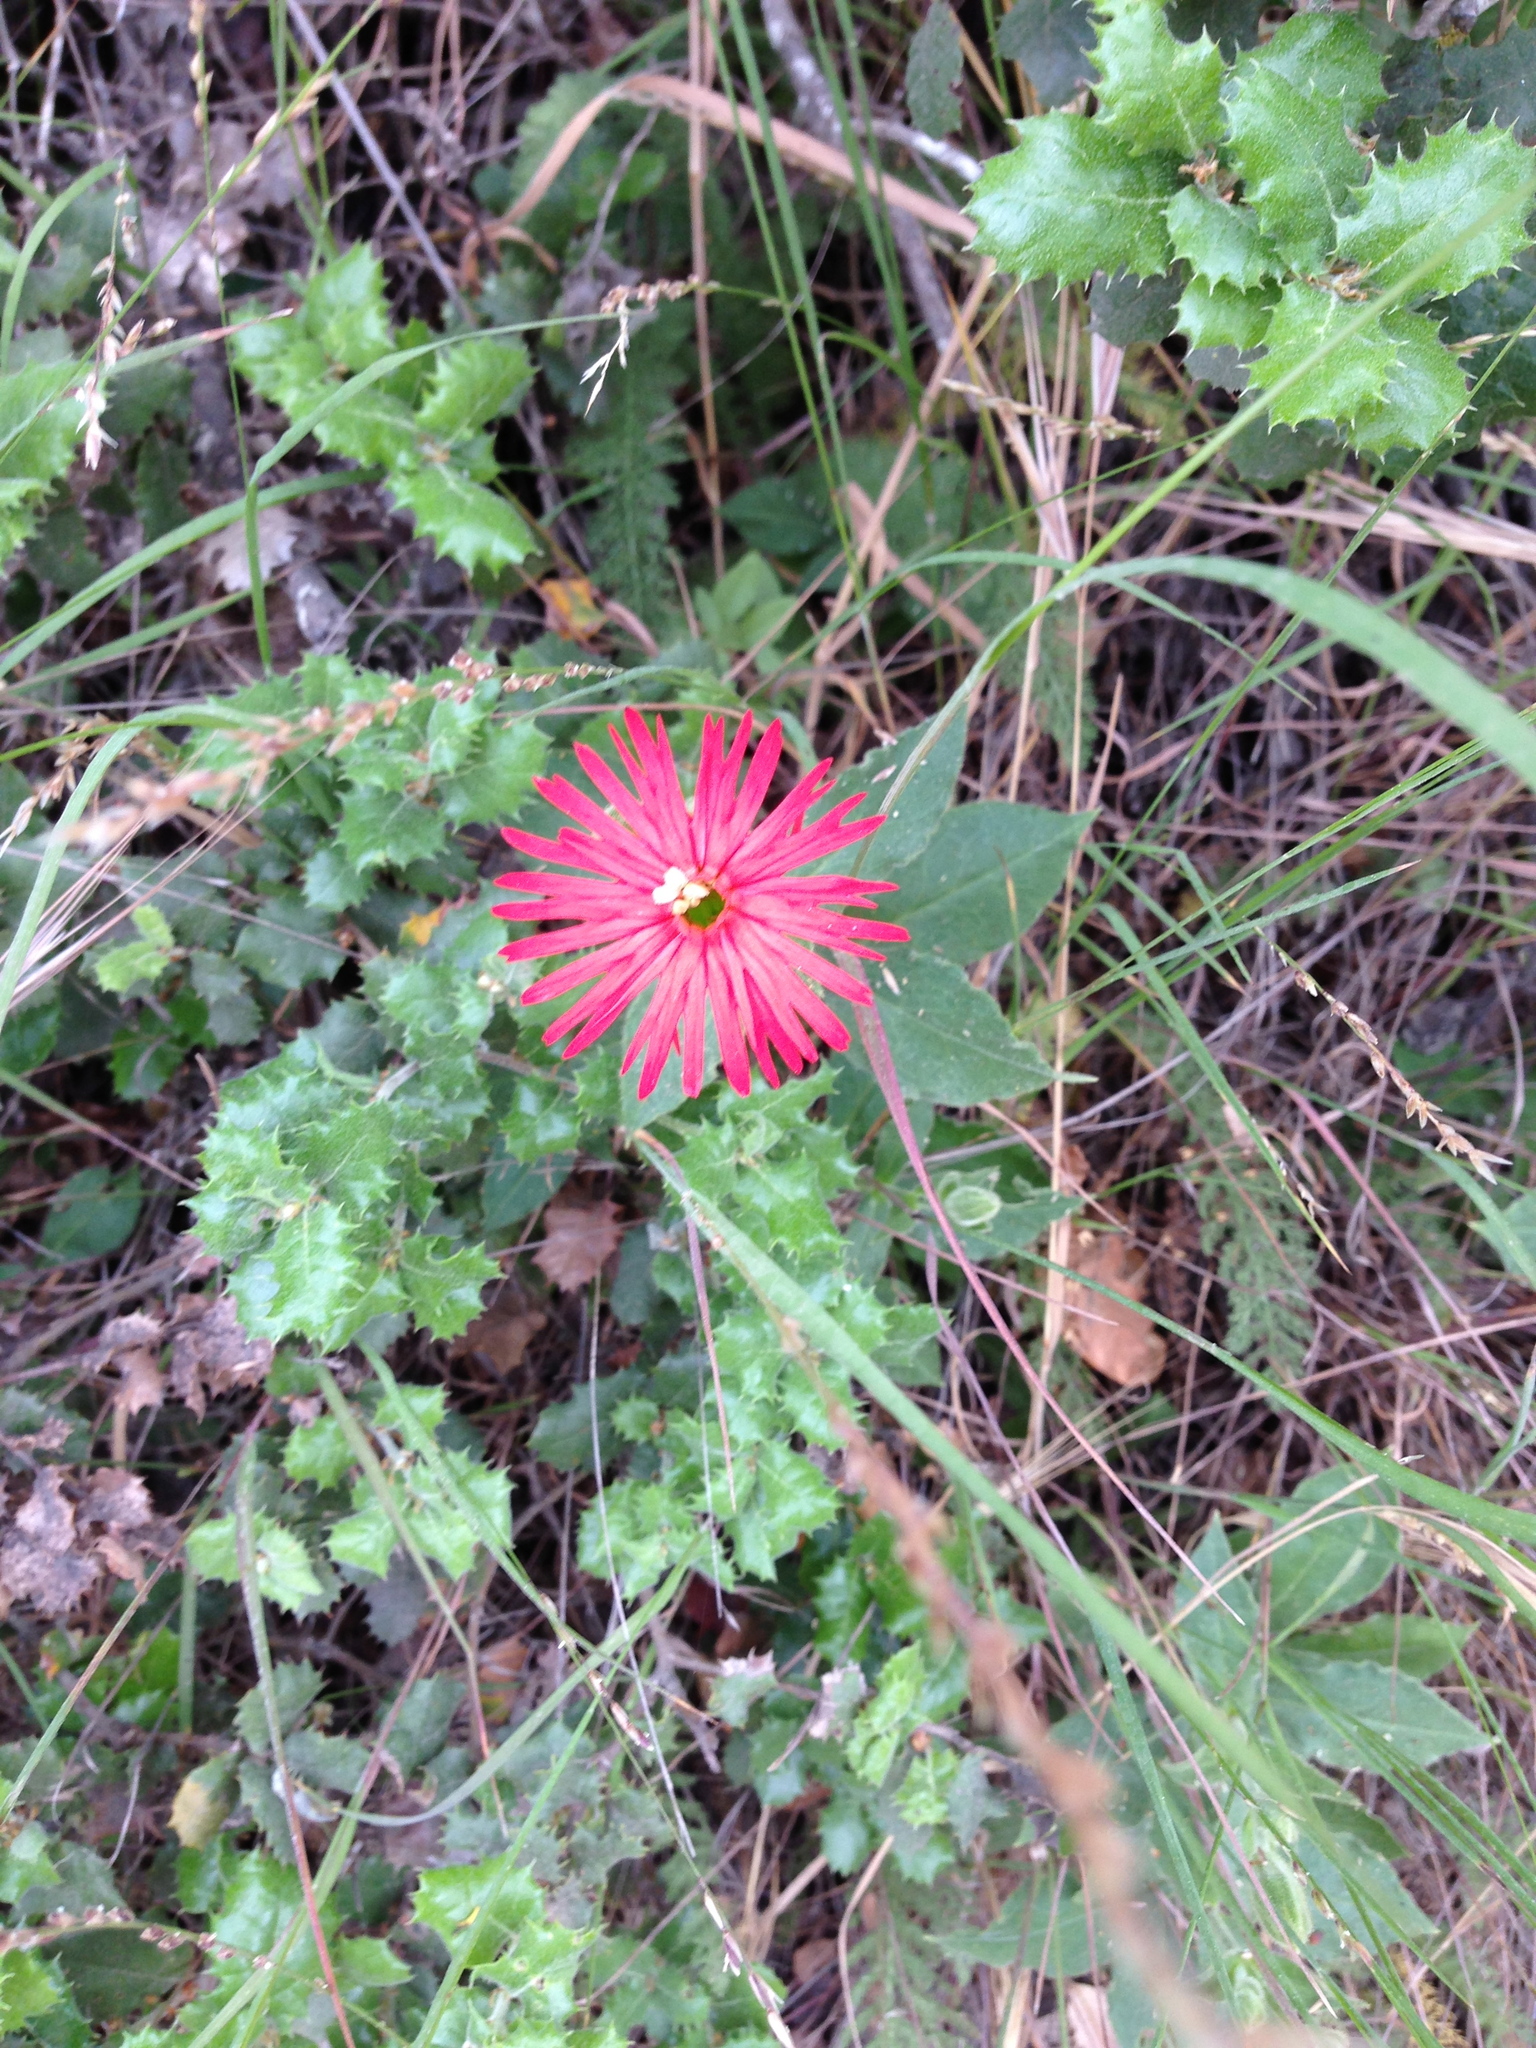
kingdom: Plantae
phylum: Tracheophyta
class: Magnoliopsida
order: Caryophyllales
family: Caryophyllaceae
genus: Silene
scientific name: Silene laciniata
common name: Indian-pink
